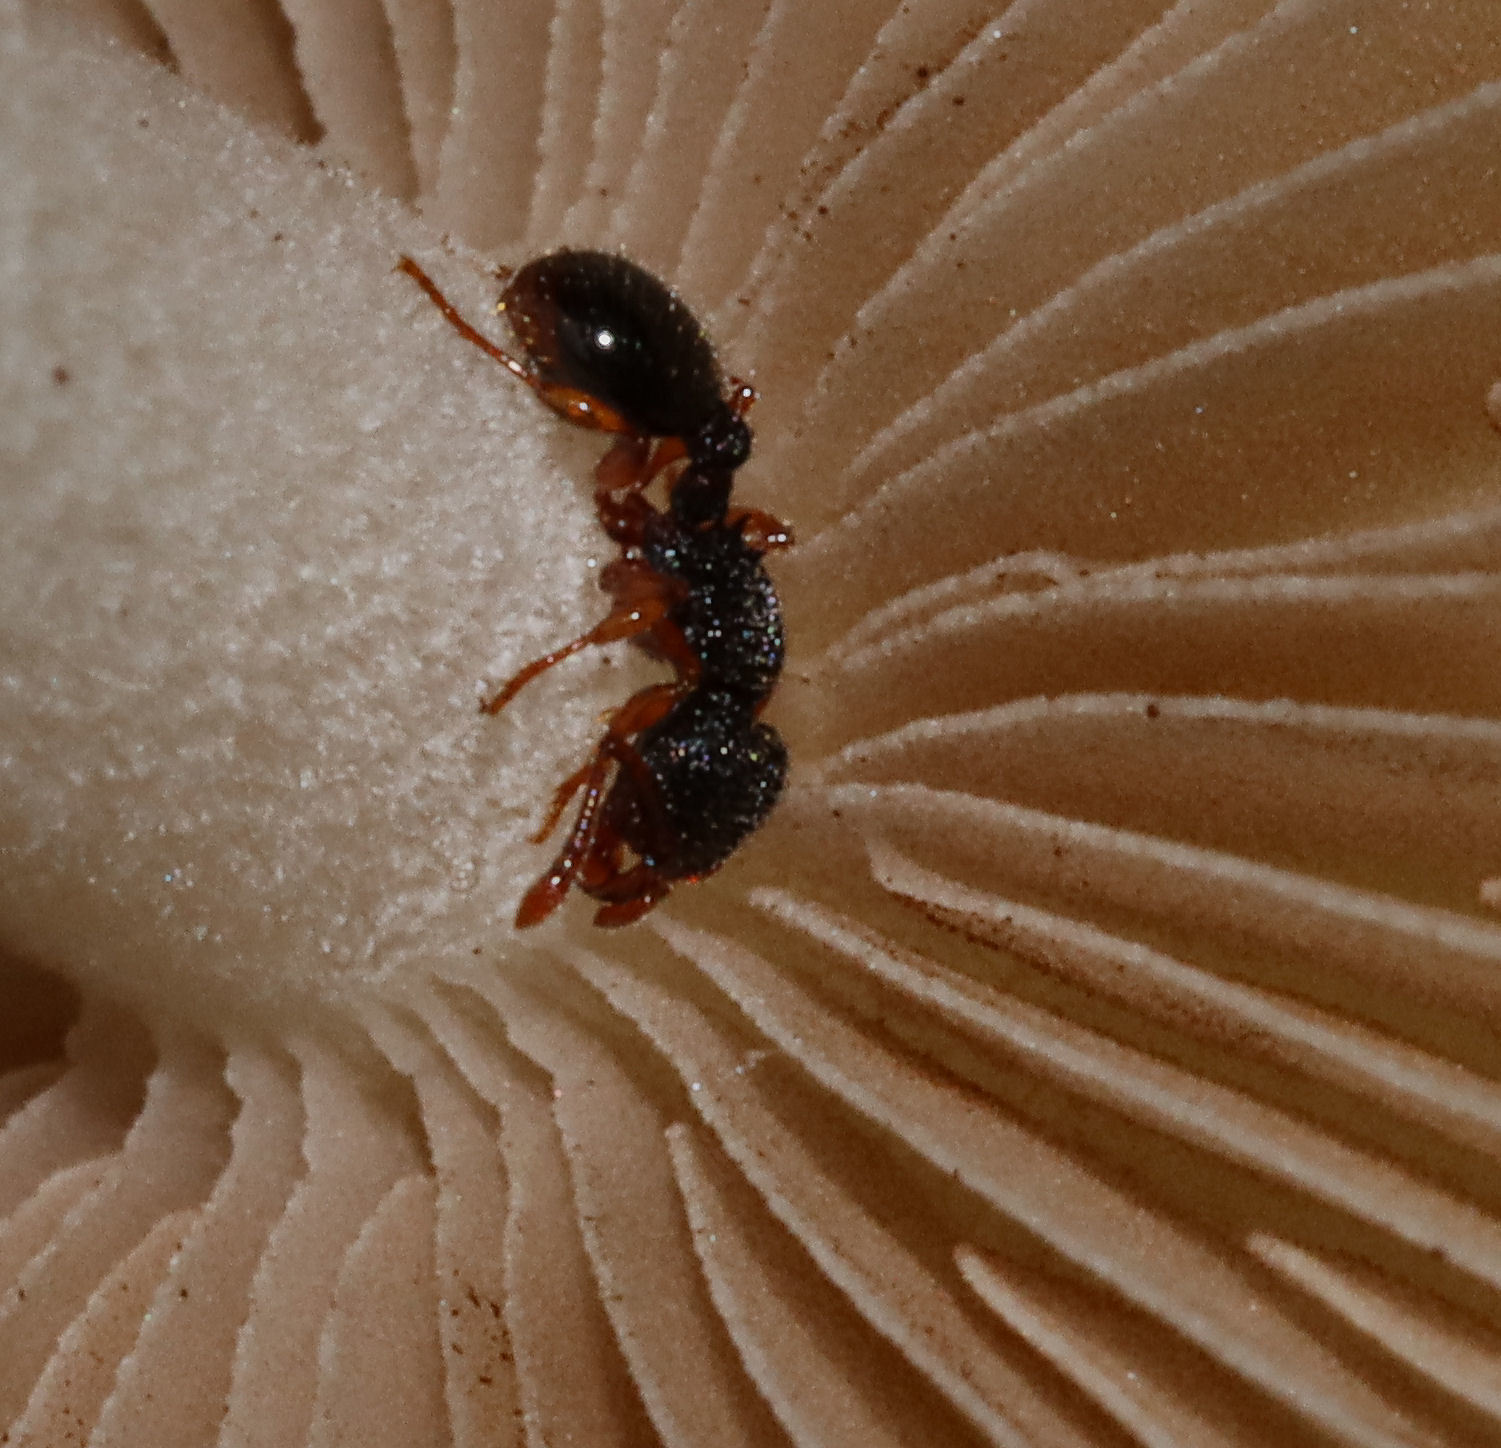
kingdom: Animalia
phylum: Arthropoda
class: Insecta
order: Hymenoptera
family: Formicidae
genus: Myrmecina
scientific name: Myrmecina americana
